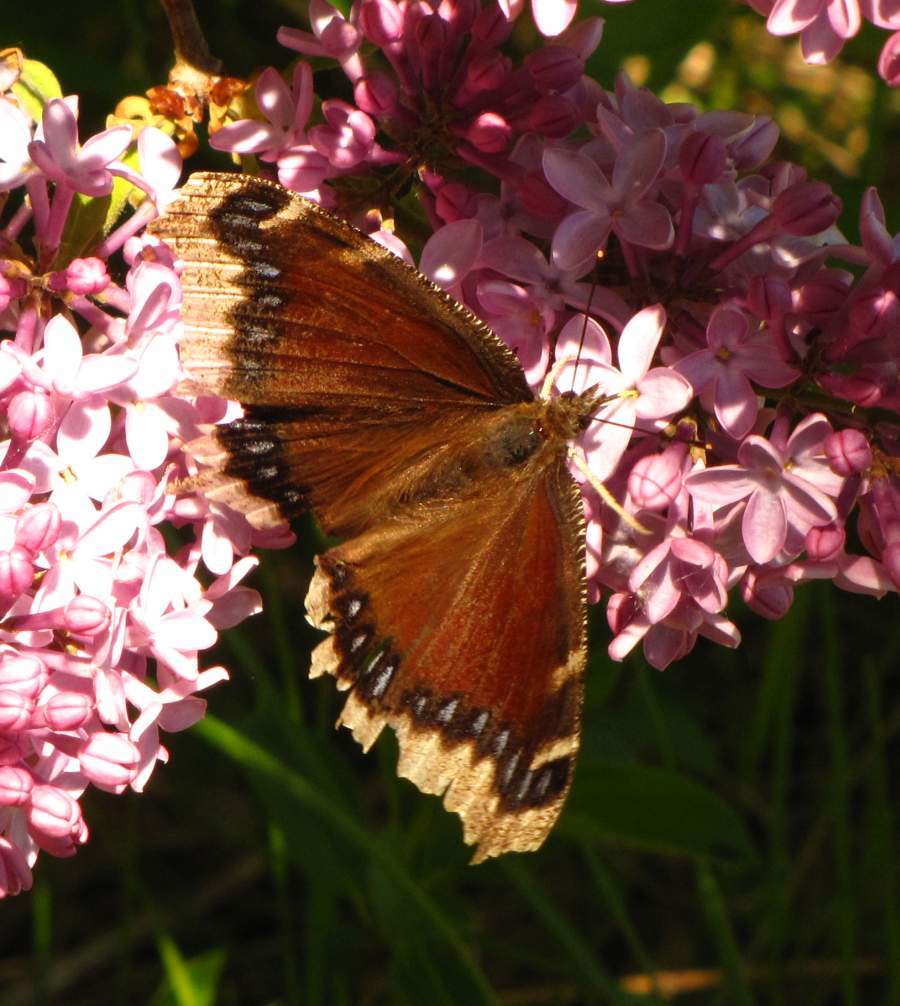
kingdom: Animalia
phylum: Arthropoda
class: Insecta
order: Lepidoptera
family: Nymphalidae
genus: Nymphalis
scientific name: Nymphalis antiopa
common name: Camberwell beauty
